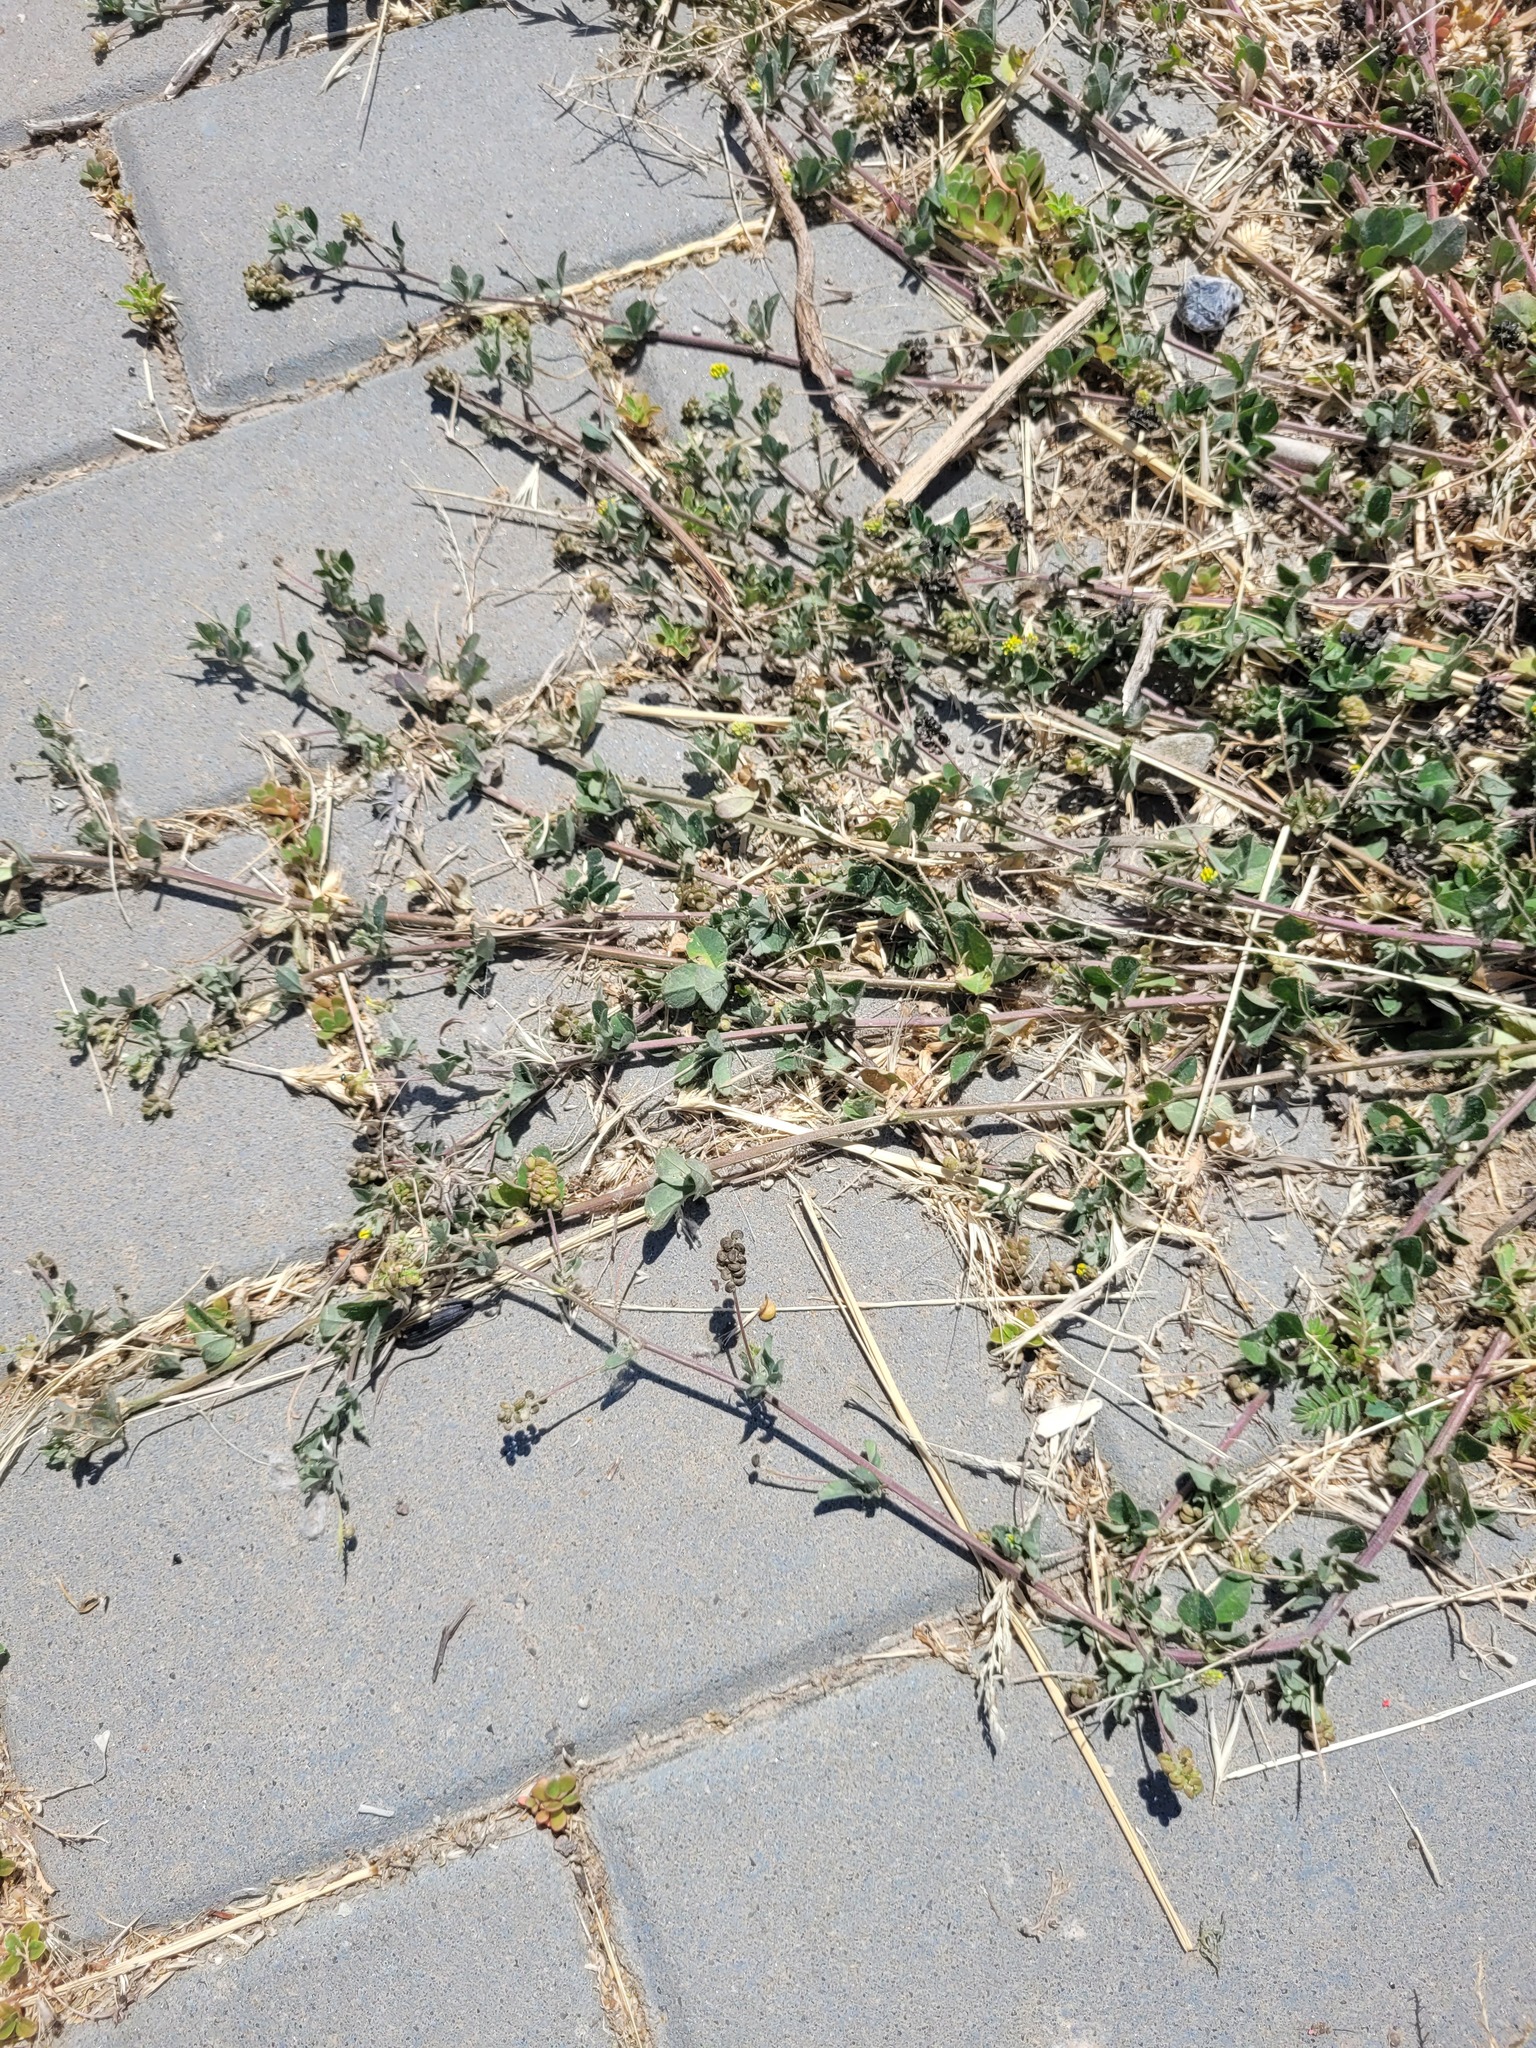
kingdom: Plantae
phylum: Tracheophyta
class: Magnoliopsida
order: Fabales
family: Fabaceae
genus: Medicago
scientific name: Medicago lupulina
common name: Black medick
